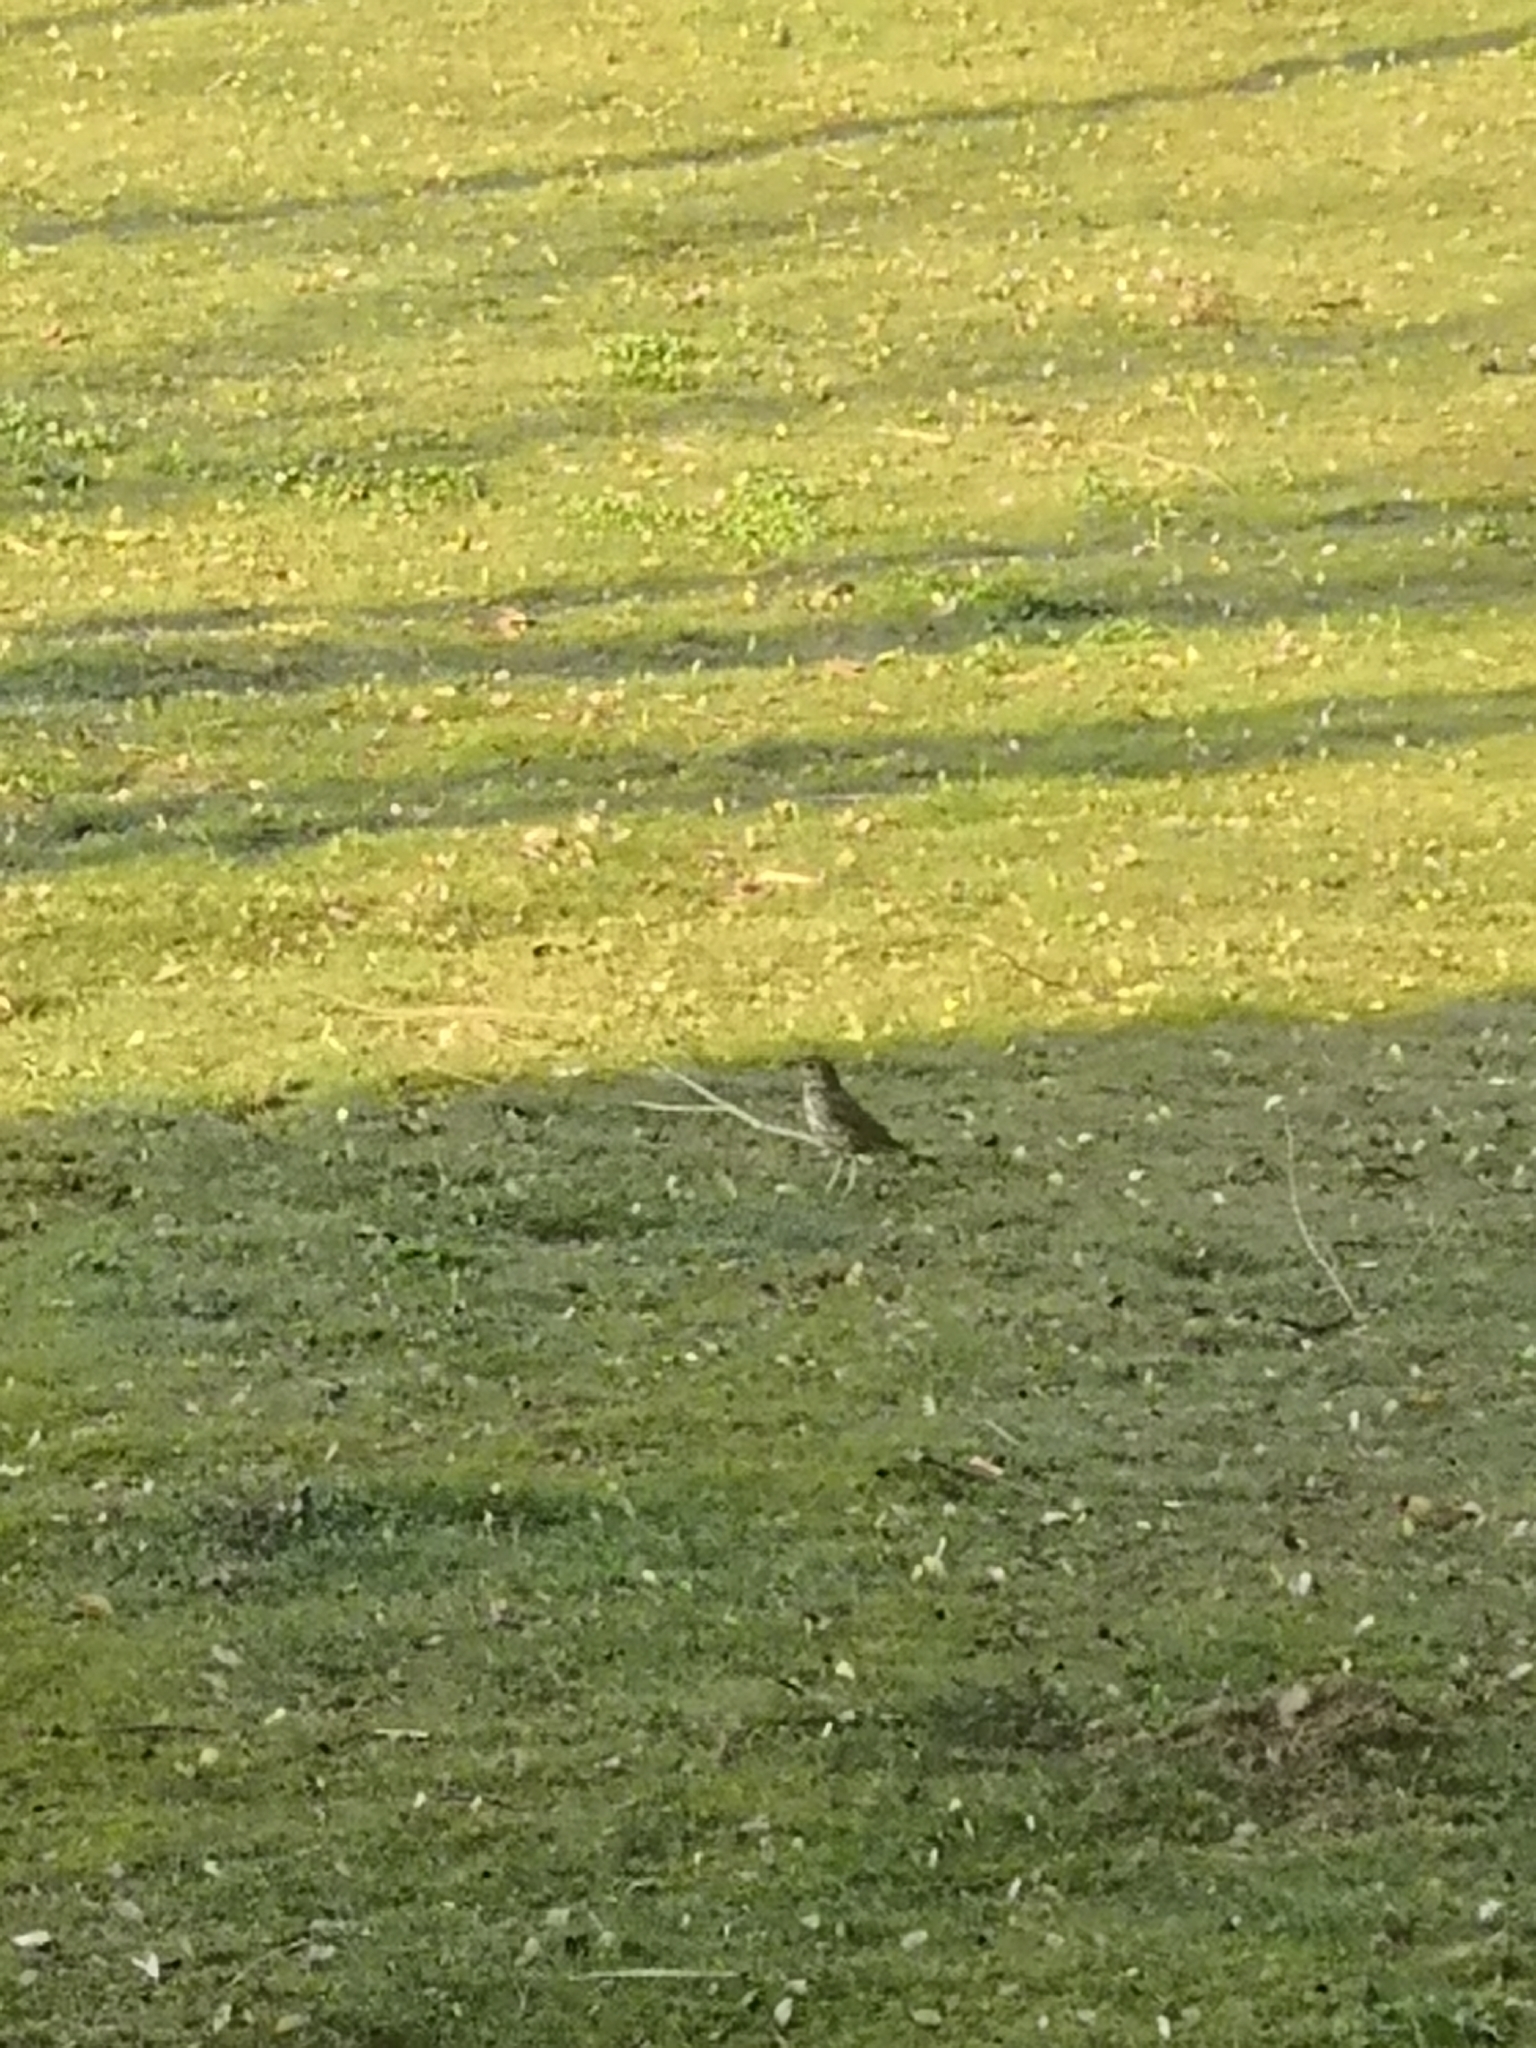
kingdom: Animalia
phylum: Chordata
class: Aves
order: Passeriformes
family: Turdidae
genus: Turdus
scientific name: Turdus philomelos
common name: Song thrush
